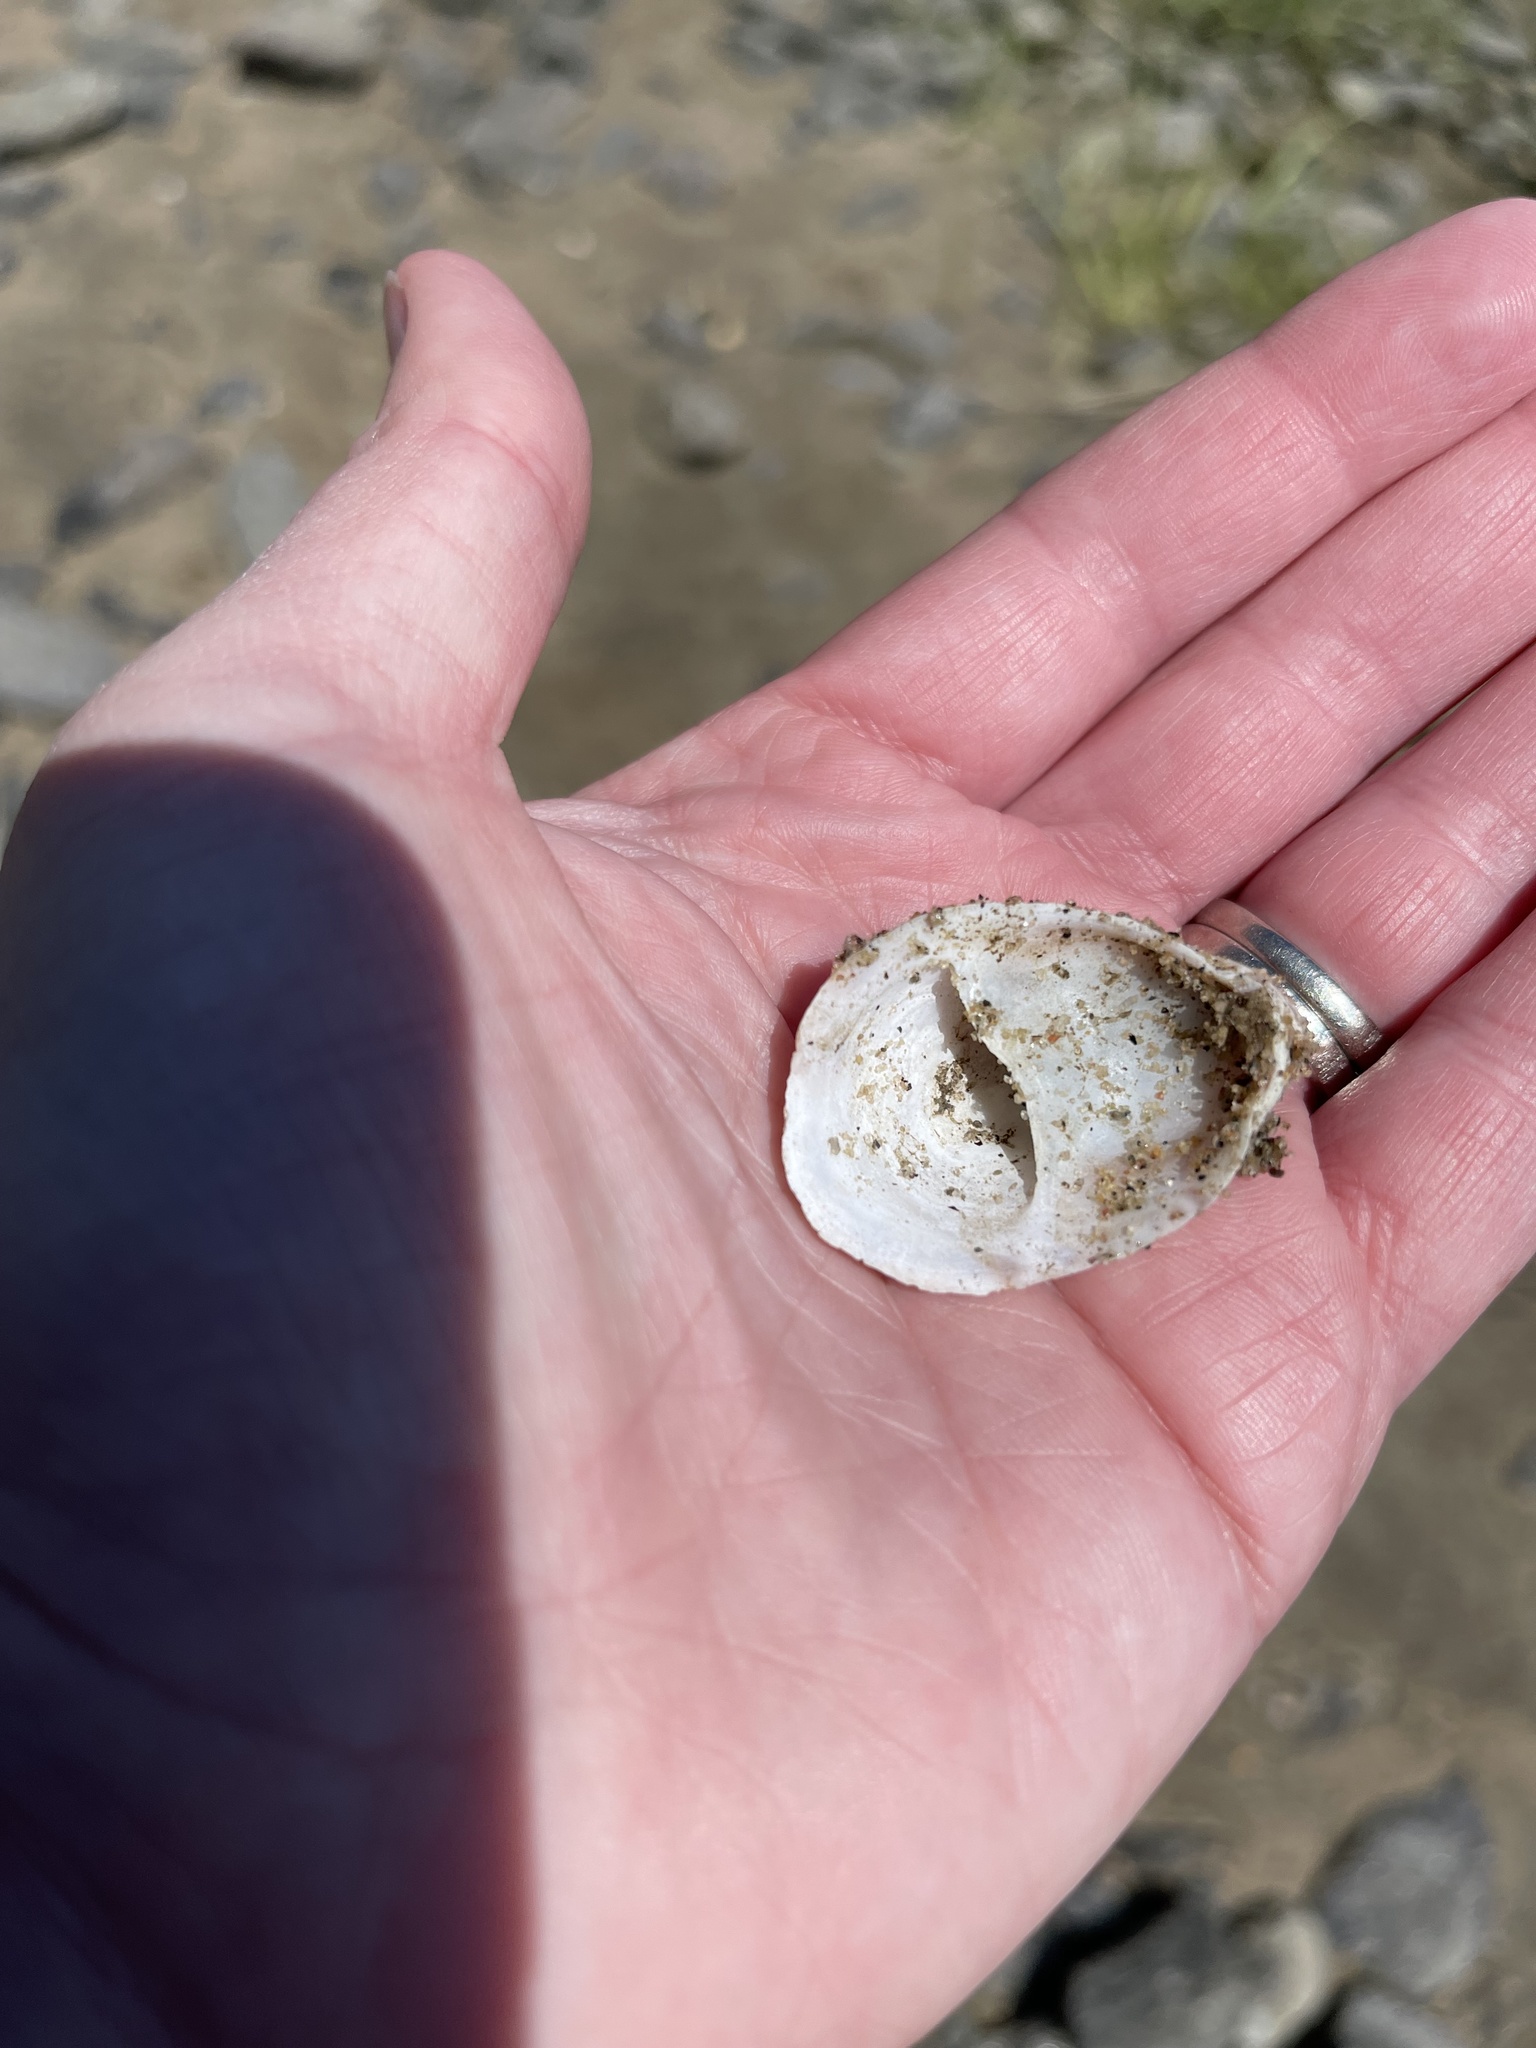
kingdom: Animalia
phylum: Mollusca
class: Gastropoda
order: Littorinimorpha
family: Calyptraeidae
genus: Crepidula
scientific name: Crepidula fornicata
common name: Slipper limpet
